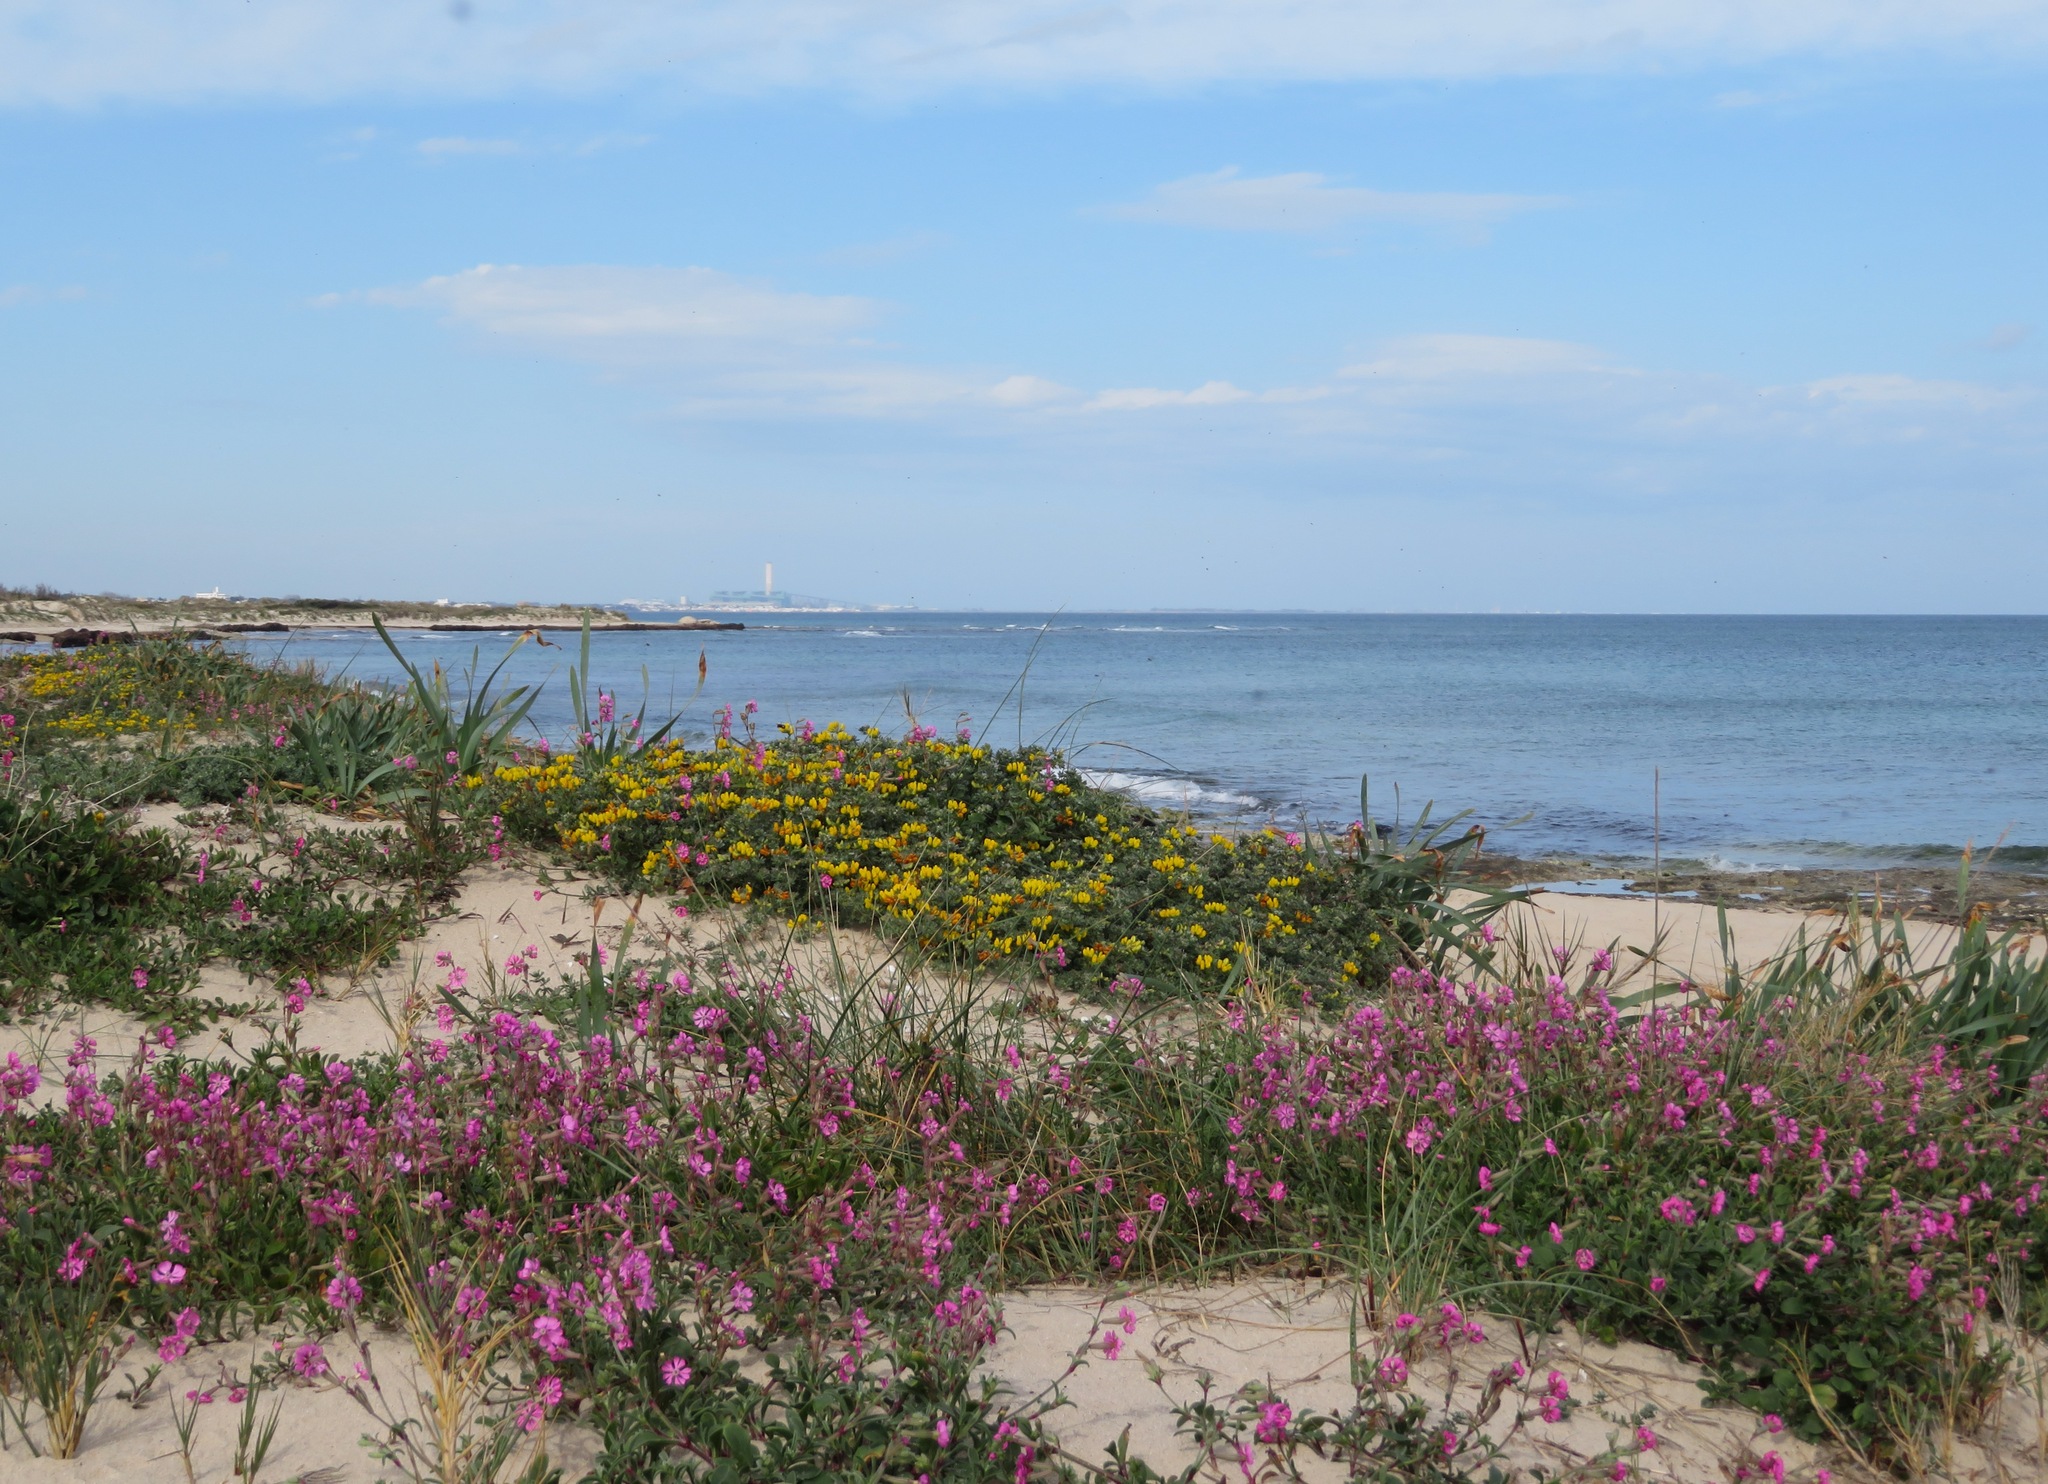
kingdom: Plantae
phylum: Tracheophyta
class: Magnoliopsida
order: Caryophyllales
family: Caryophyllaceae
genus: Silene
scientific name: Silene colorata
